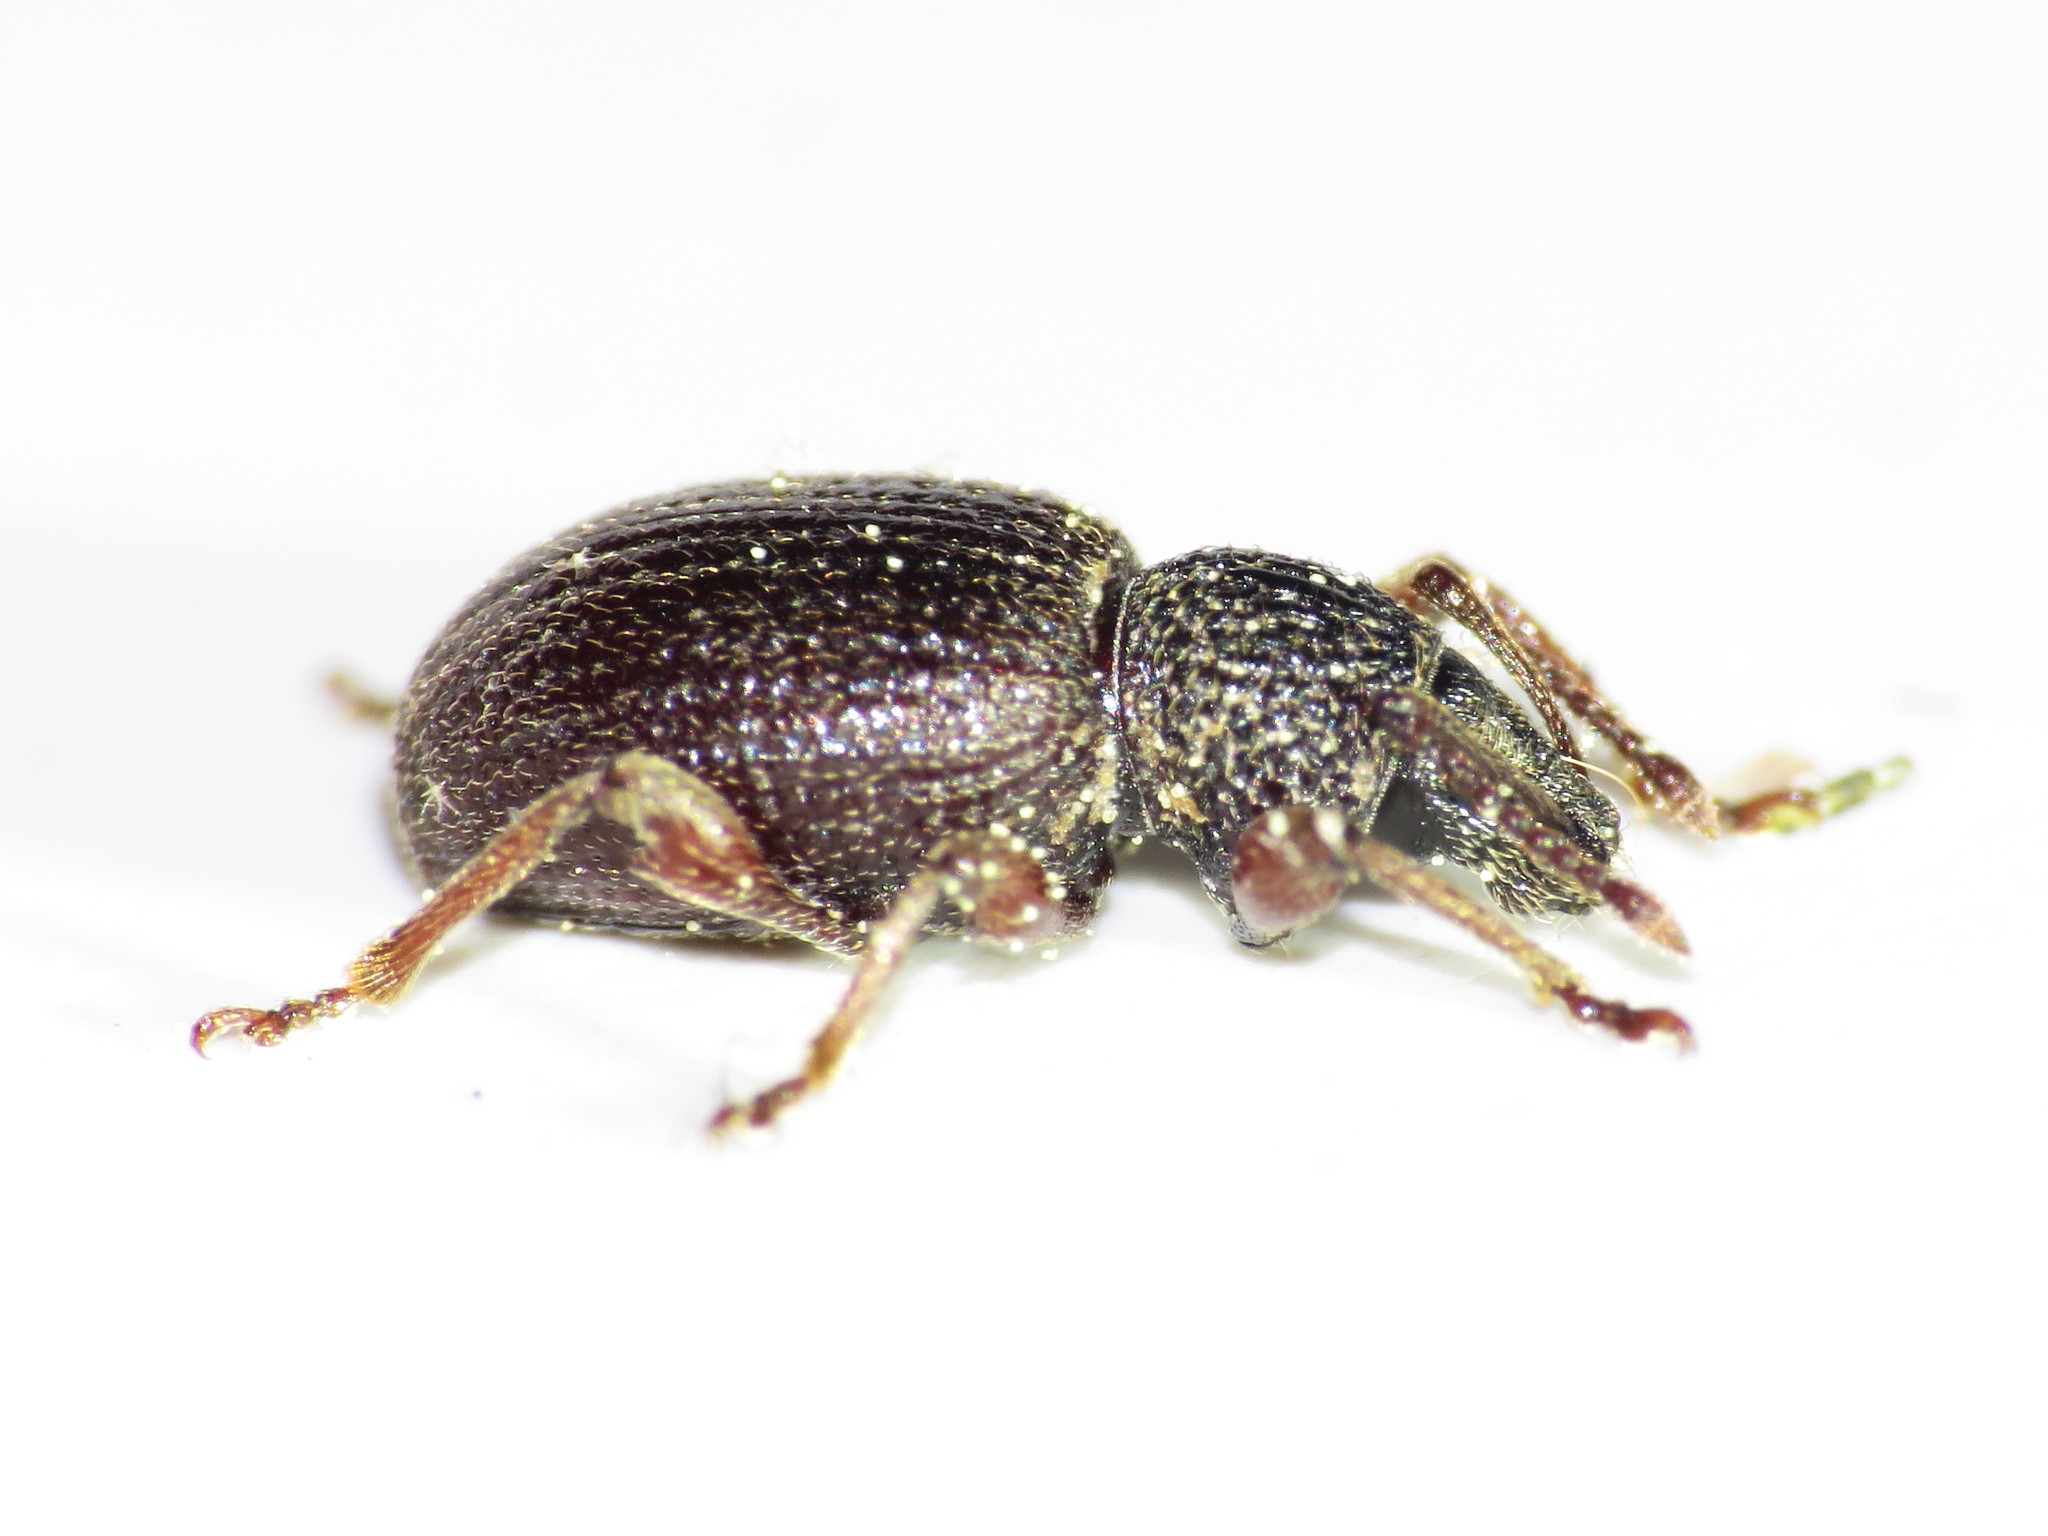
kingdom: Animalia
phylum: Arthropoda
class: Insecta
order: Coleoptera
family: Curculionidae
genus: Otiorhynchus
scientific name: Otiorhynchus ovatus
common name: Strawberry root weevil
